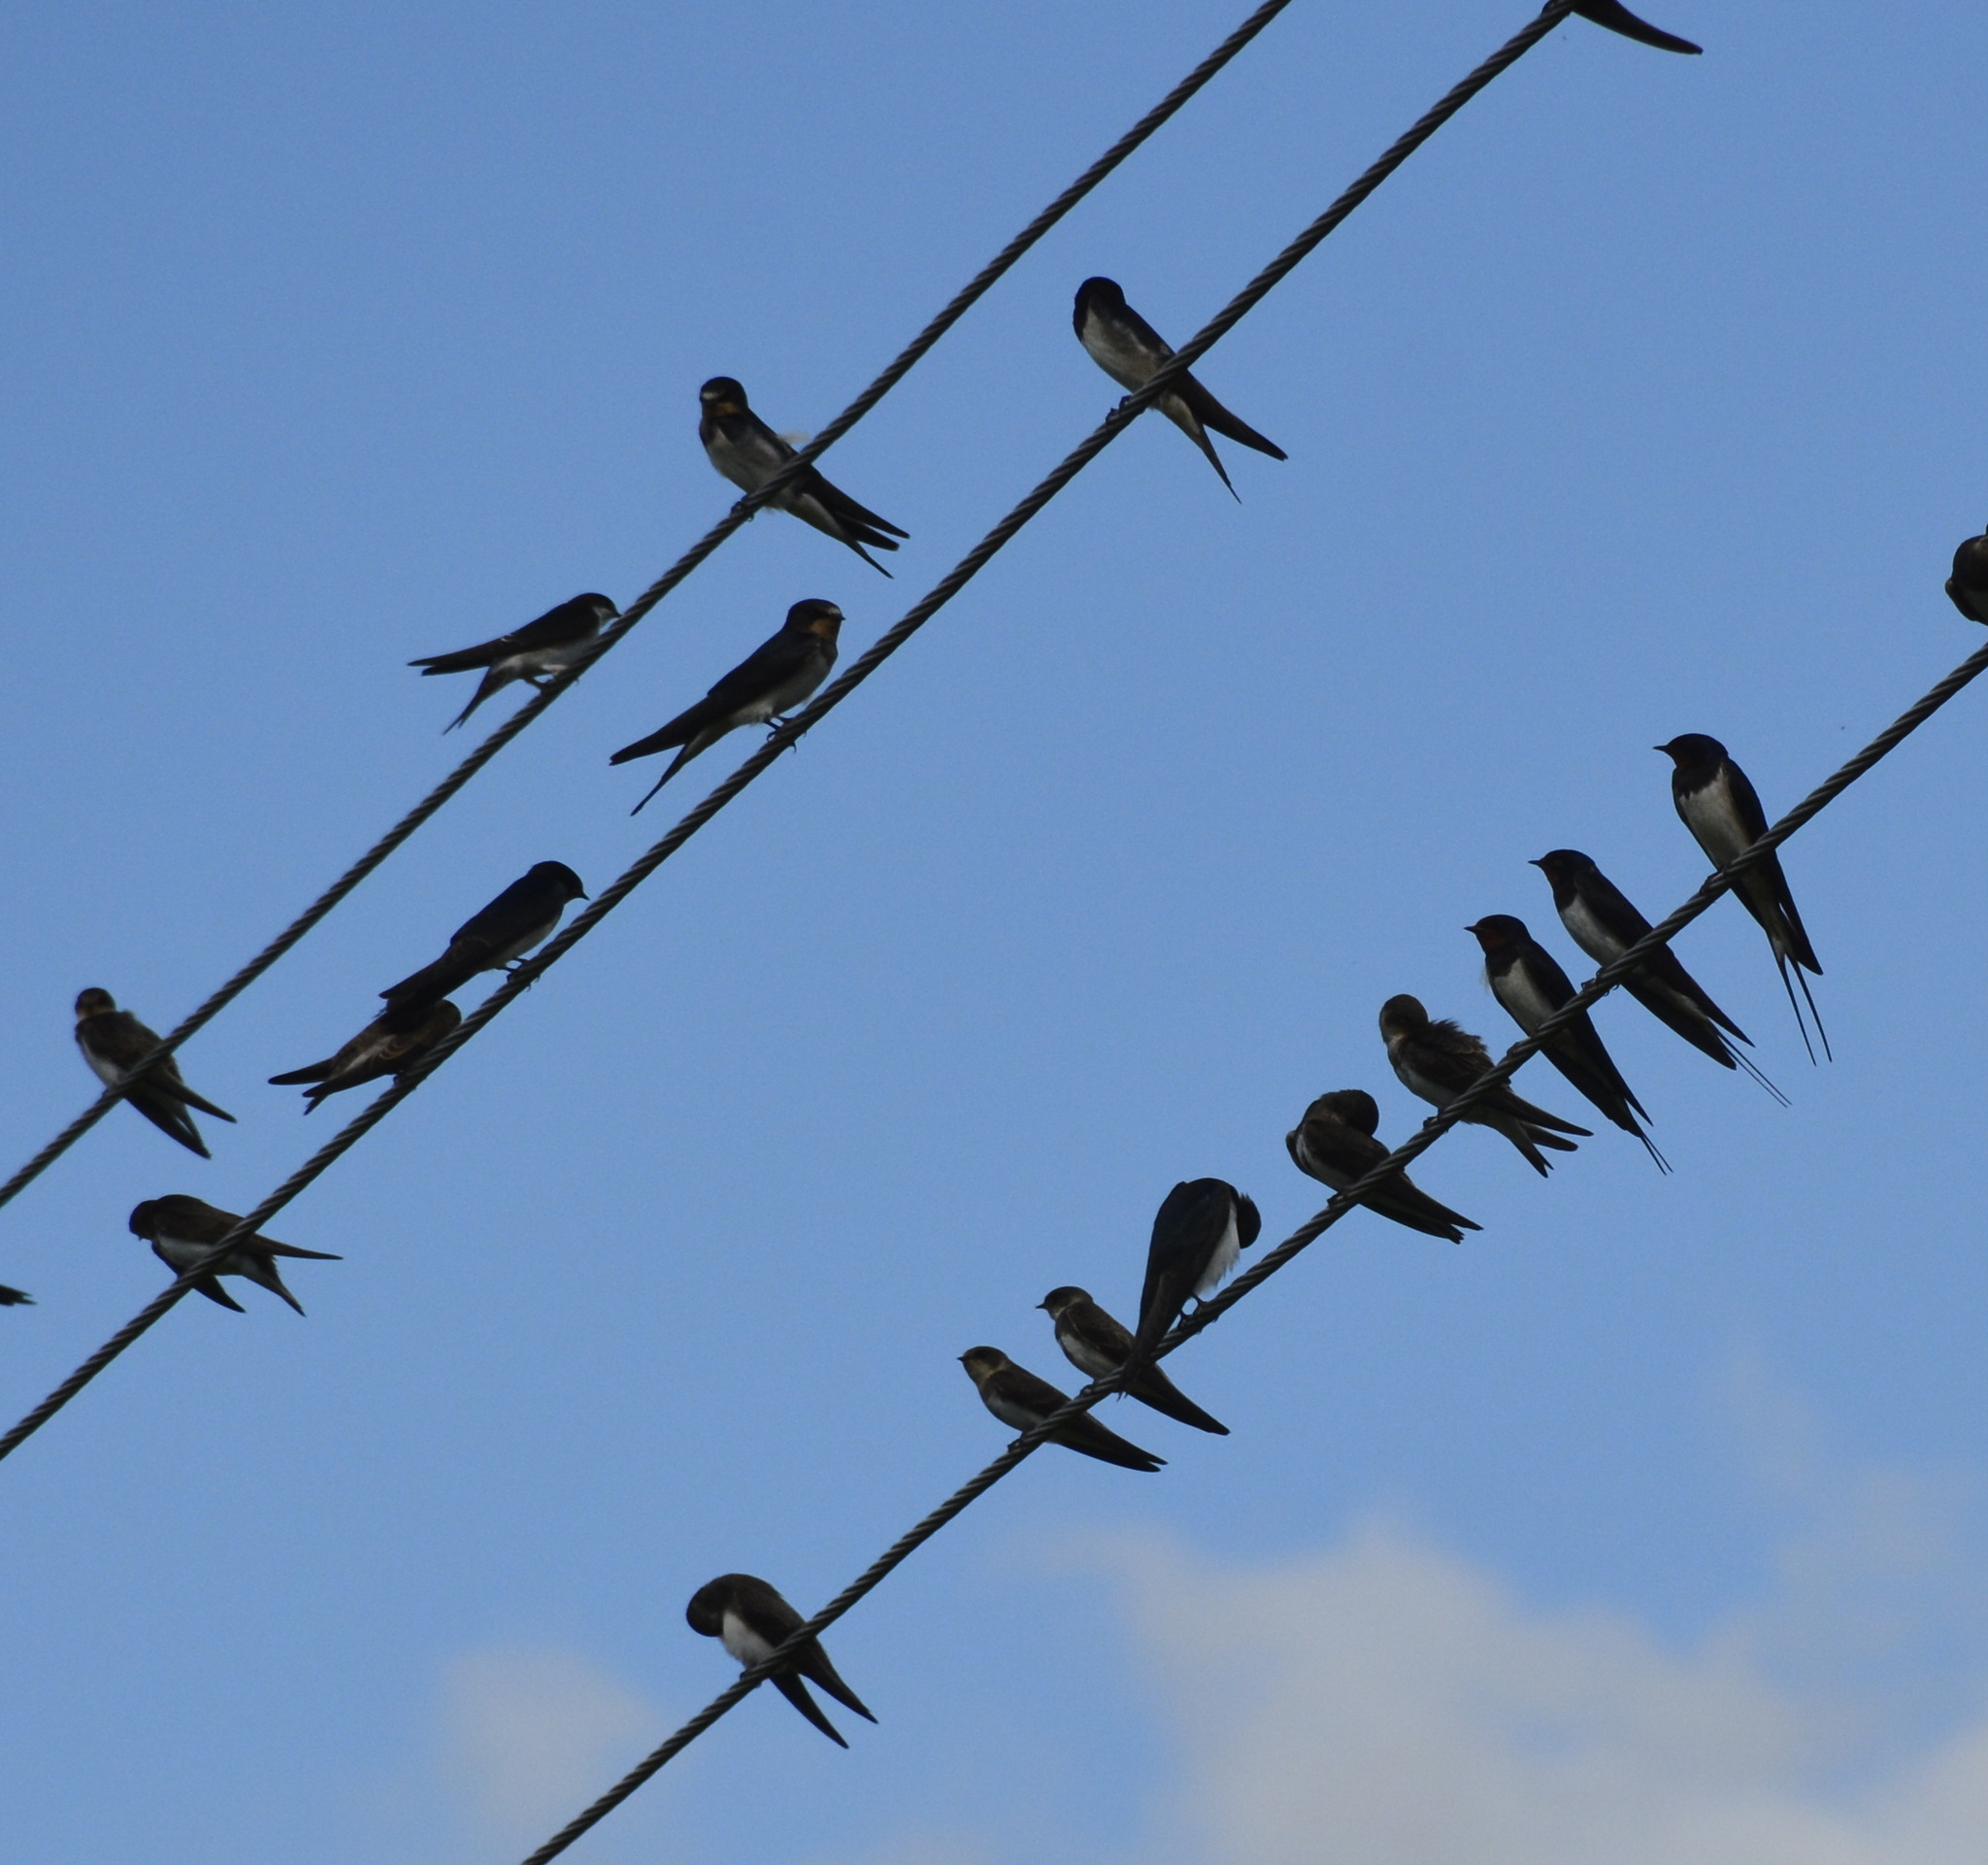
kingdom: Animalia
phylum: Chordata
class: Aves
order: Passeriformes
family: Hirundinidae
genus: Hirundo
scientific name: Hirundo rustica
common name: Barn swallow
